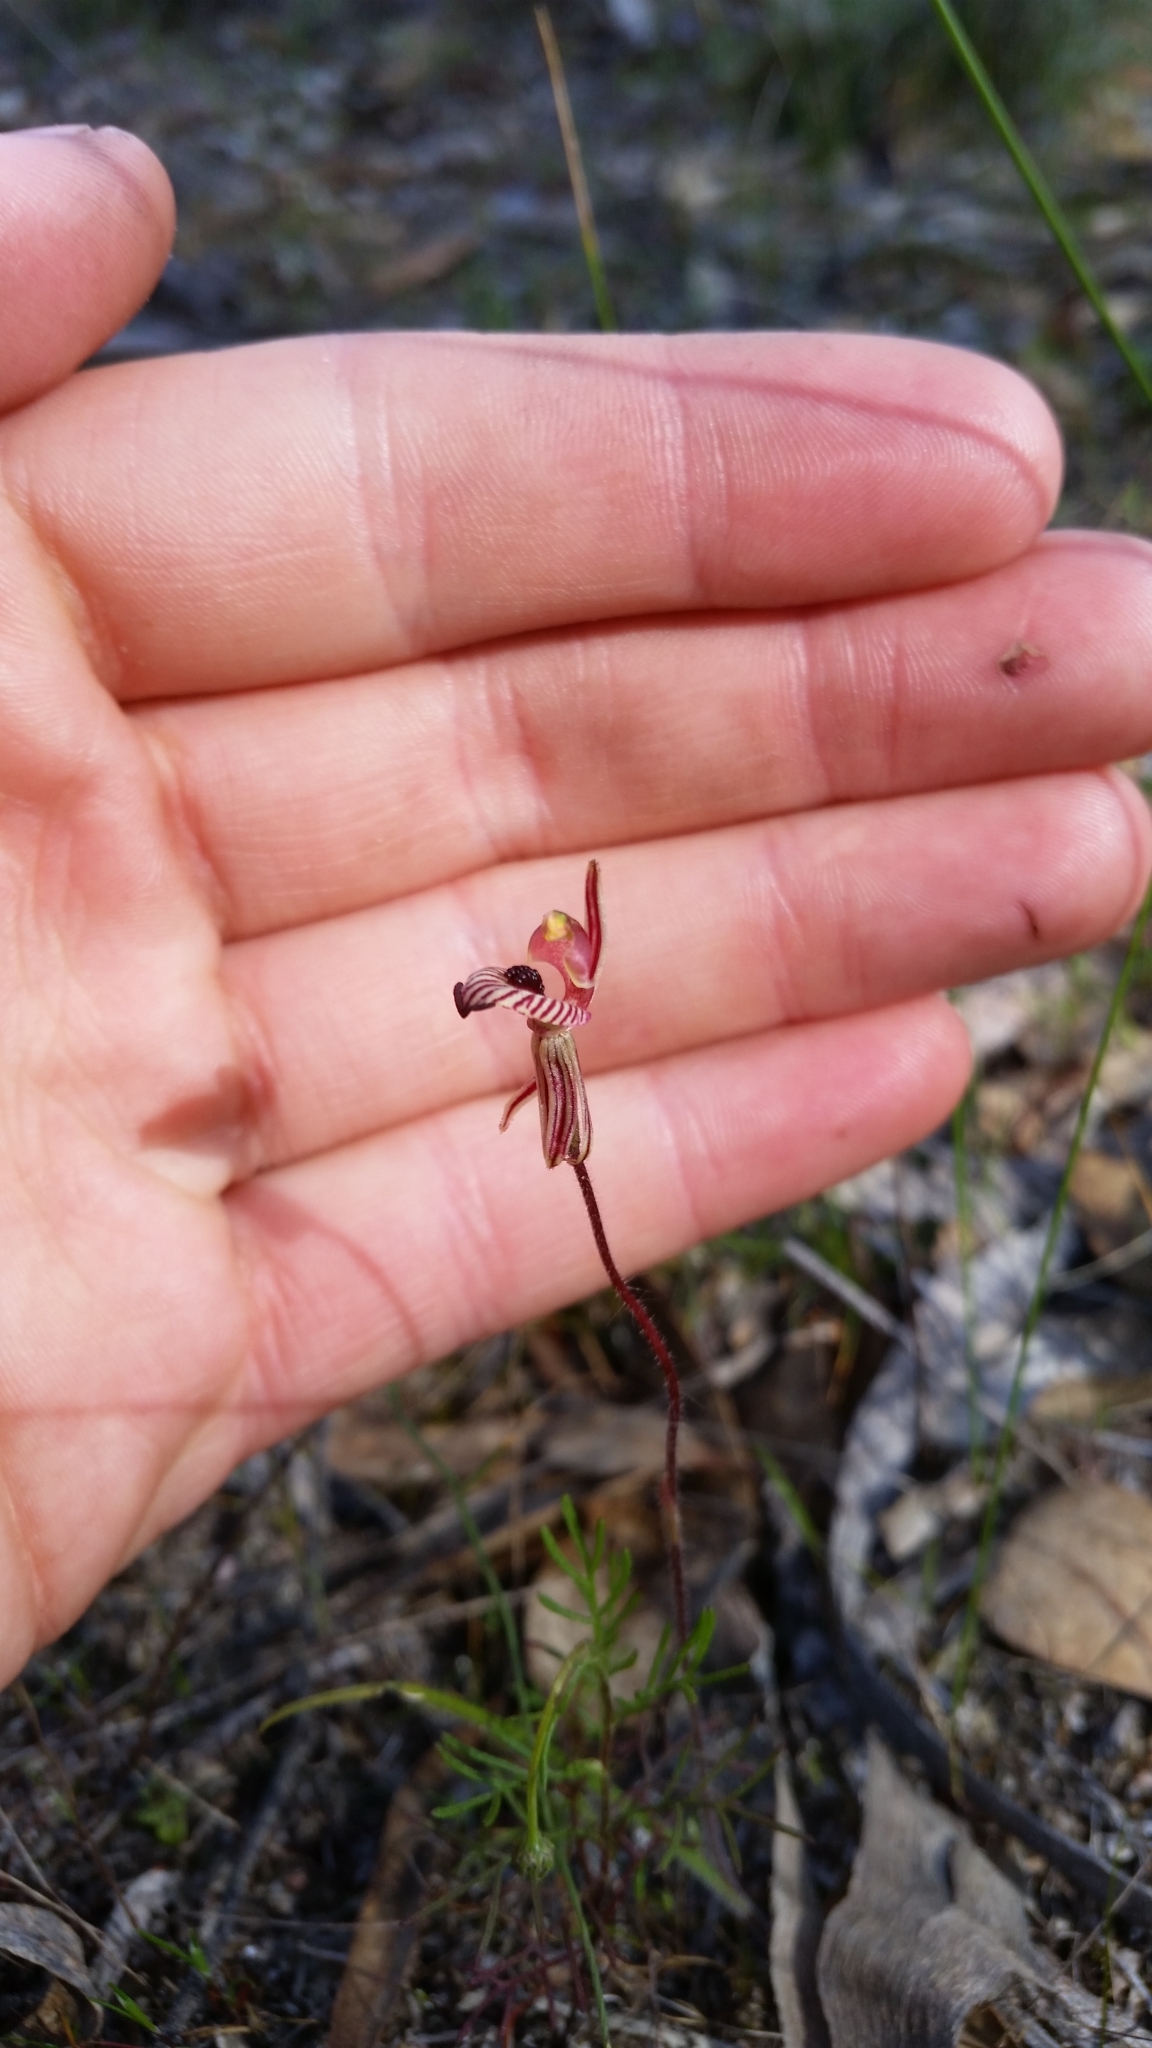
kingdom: Plantae
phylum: Tracheophyta
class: Liliopsida
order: Asparagales
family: Orchidaceae
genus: Caladenia
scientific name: Caladenia cairnsiana
